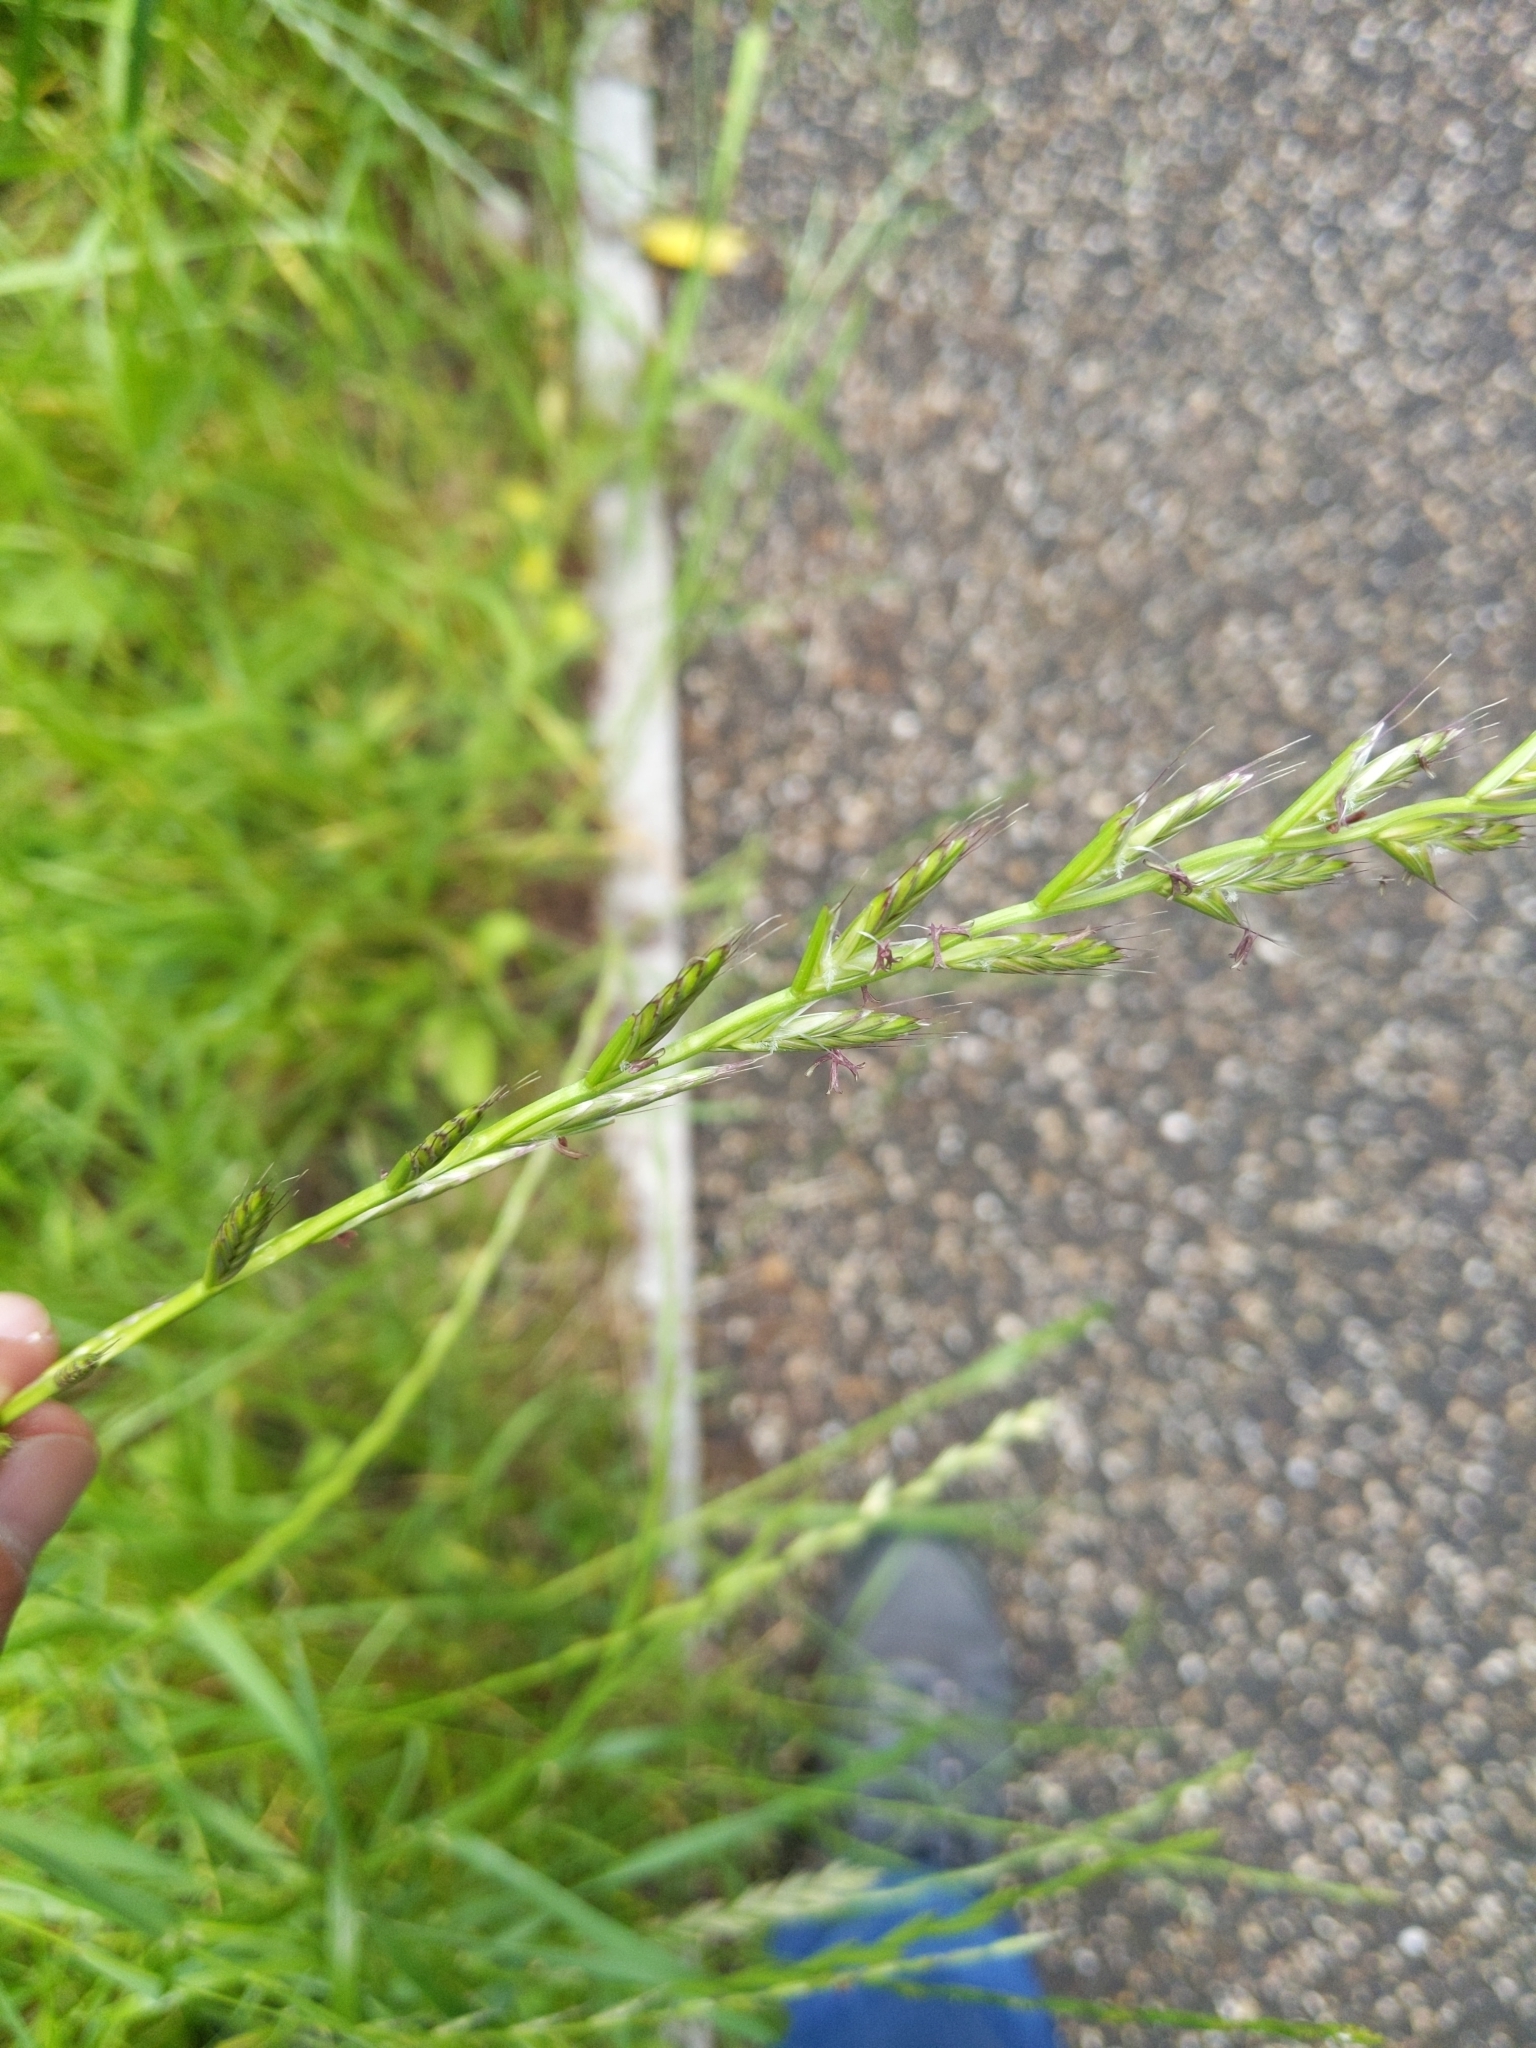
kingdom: Plantae
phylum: Tracheophyta
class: Liliopsida
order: Poales
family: Poaceae
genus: Lolium
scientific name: Lolium multiflorum
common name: Annual ryegrass
